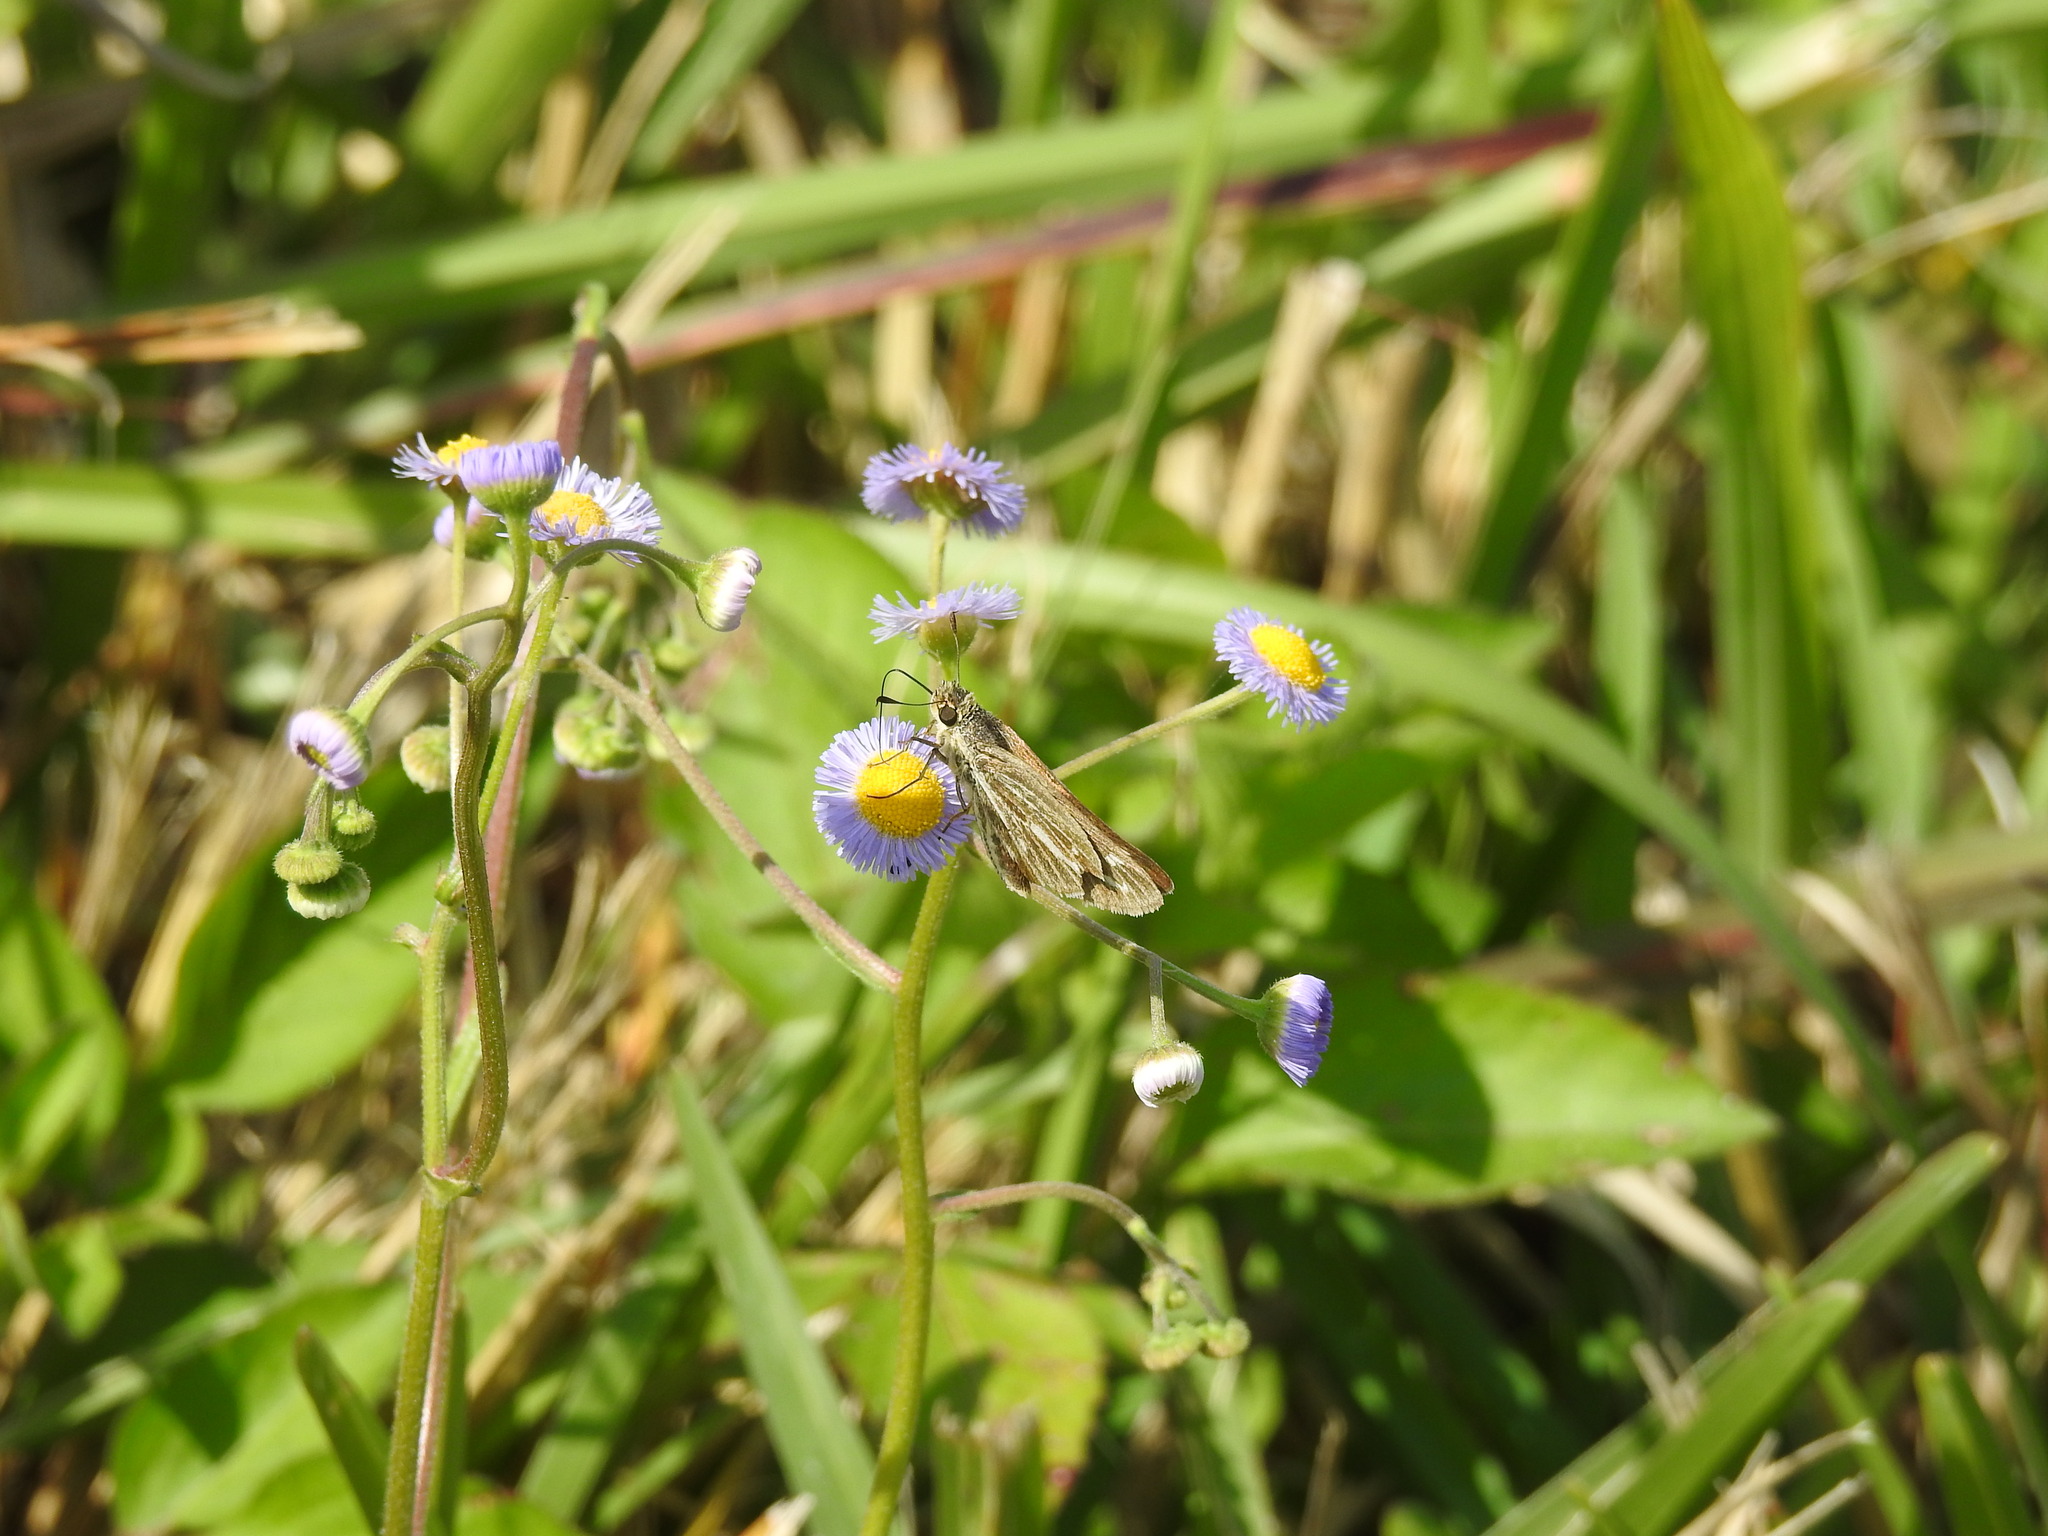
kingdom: Animalia
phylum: Arthropoda
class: Insecta
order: Lepidoptera
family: Hesperiidae
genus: Panoquina
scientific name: Panoquina panoquin
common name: Salt marsh skipper
